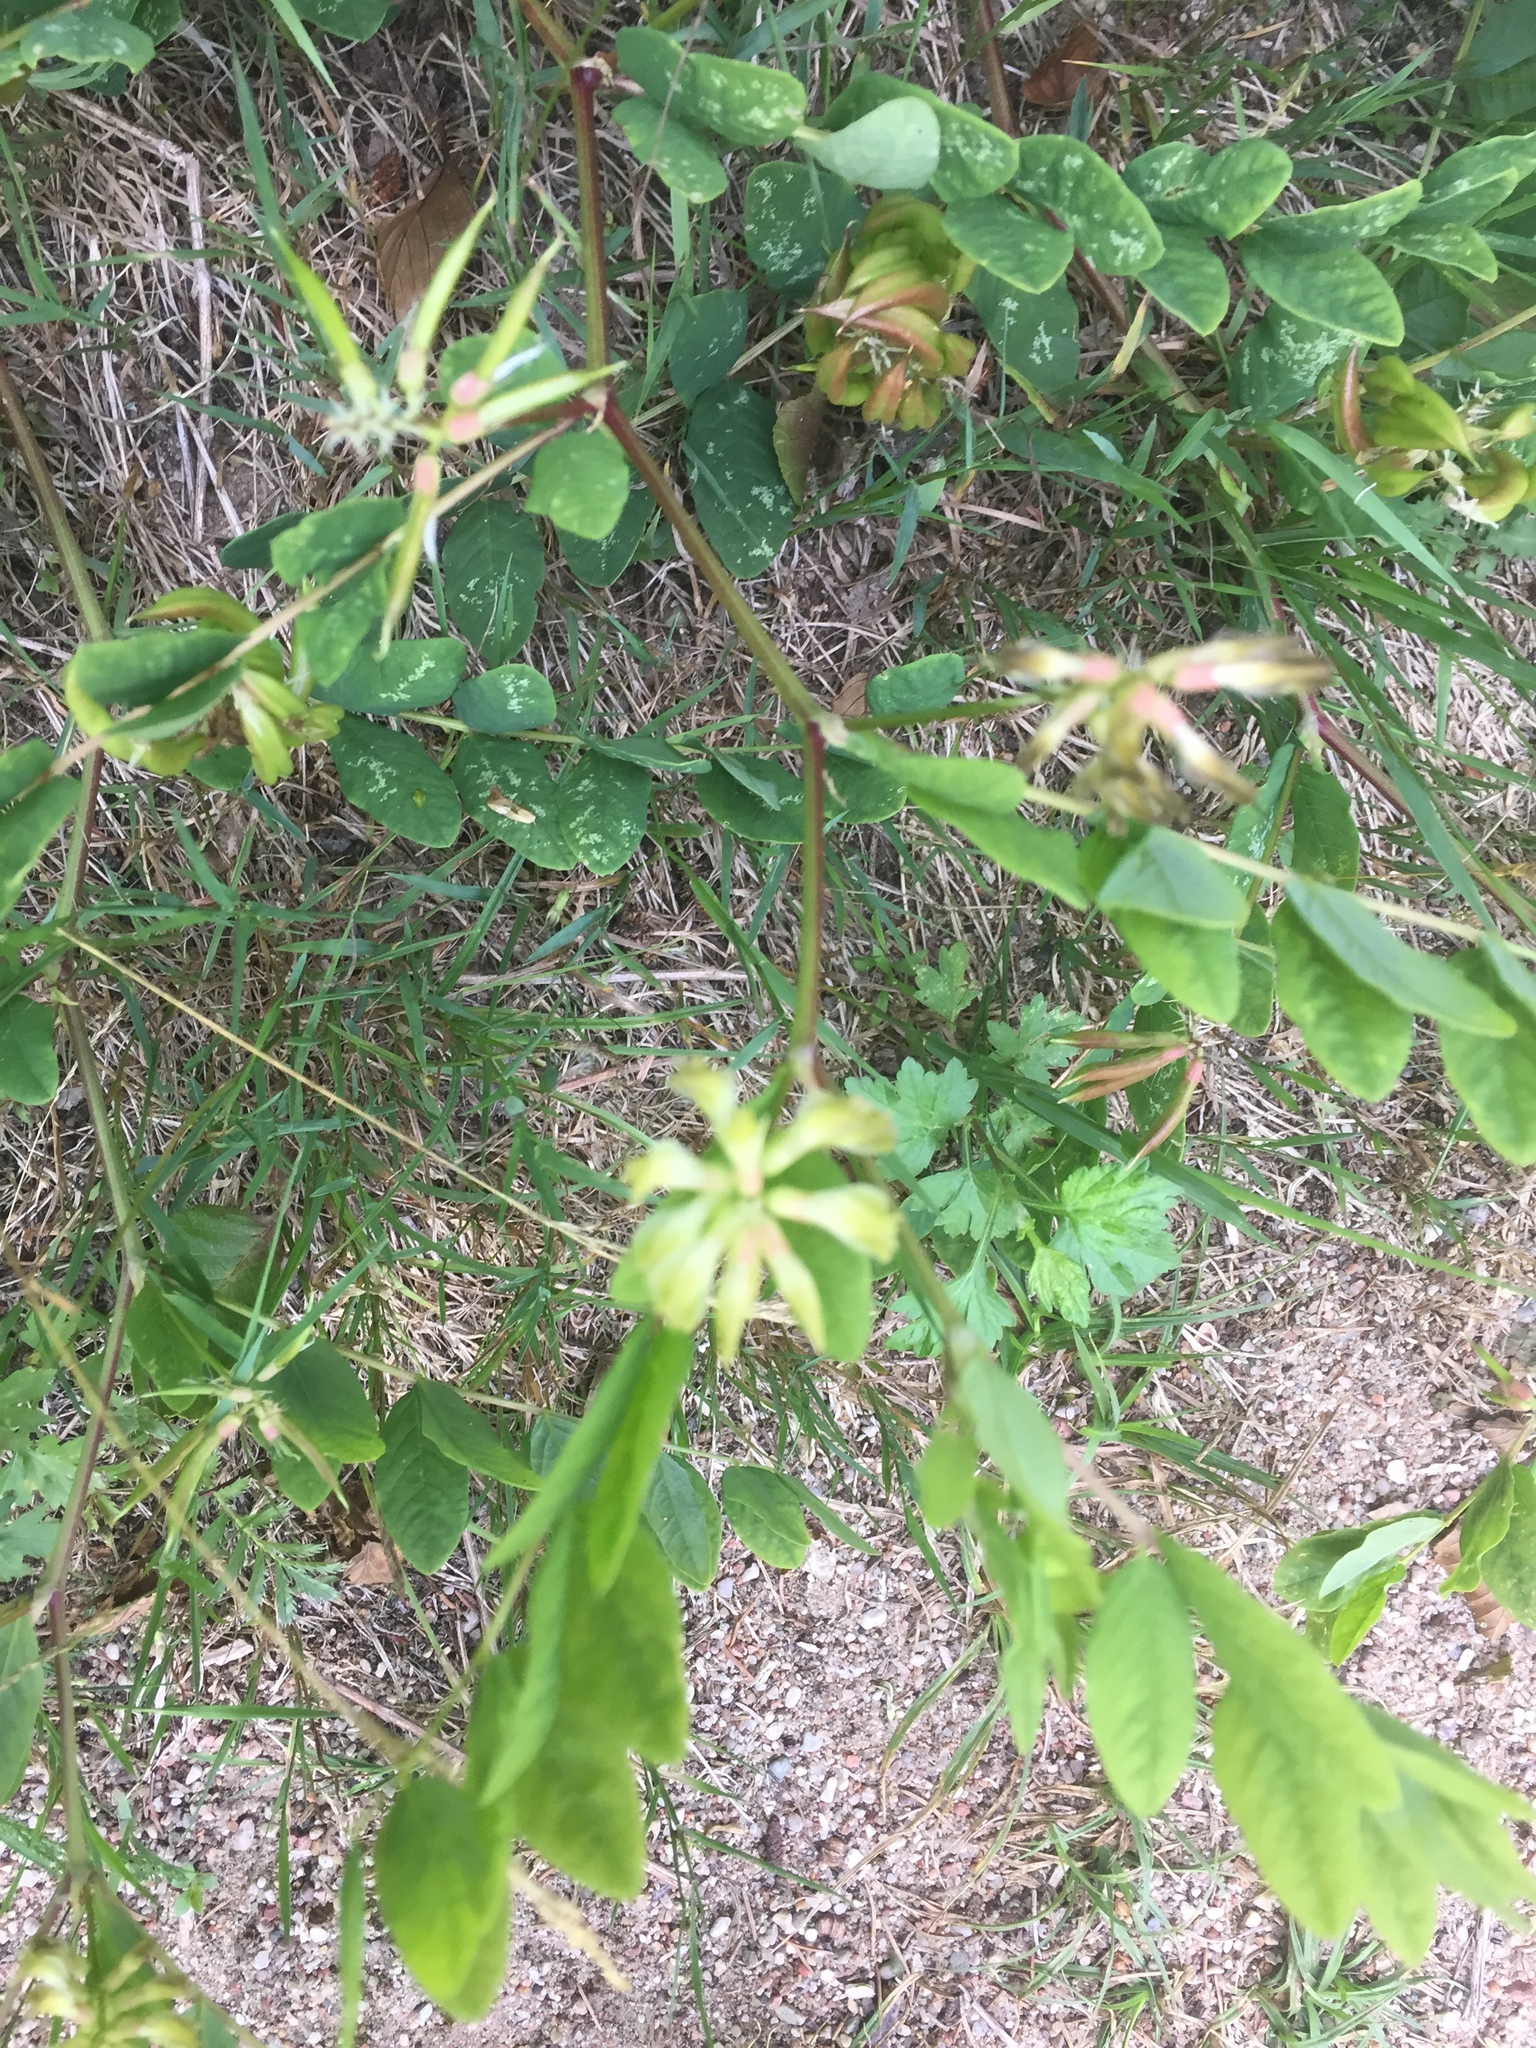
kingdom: Plantae
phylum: Tracheophyta
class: Magnoliopsida
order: Fabales
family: Fabaceae
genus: Astragalus
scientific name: Astragalus glycyphyllos
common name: Wild liquorice
